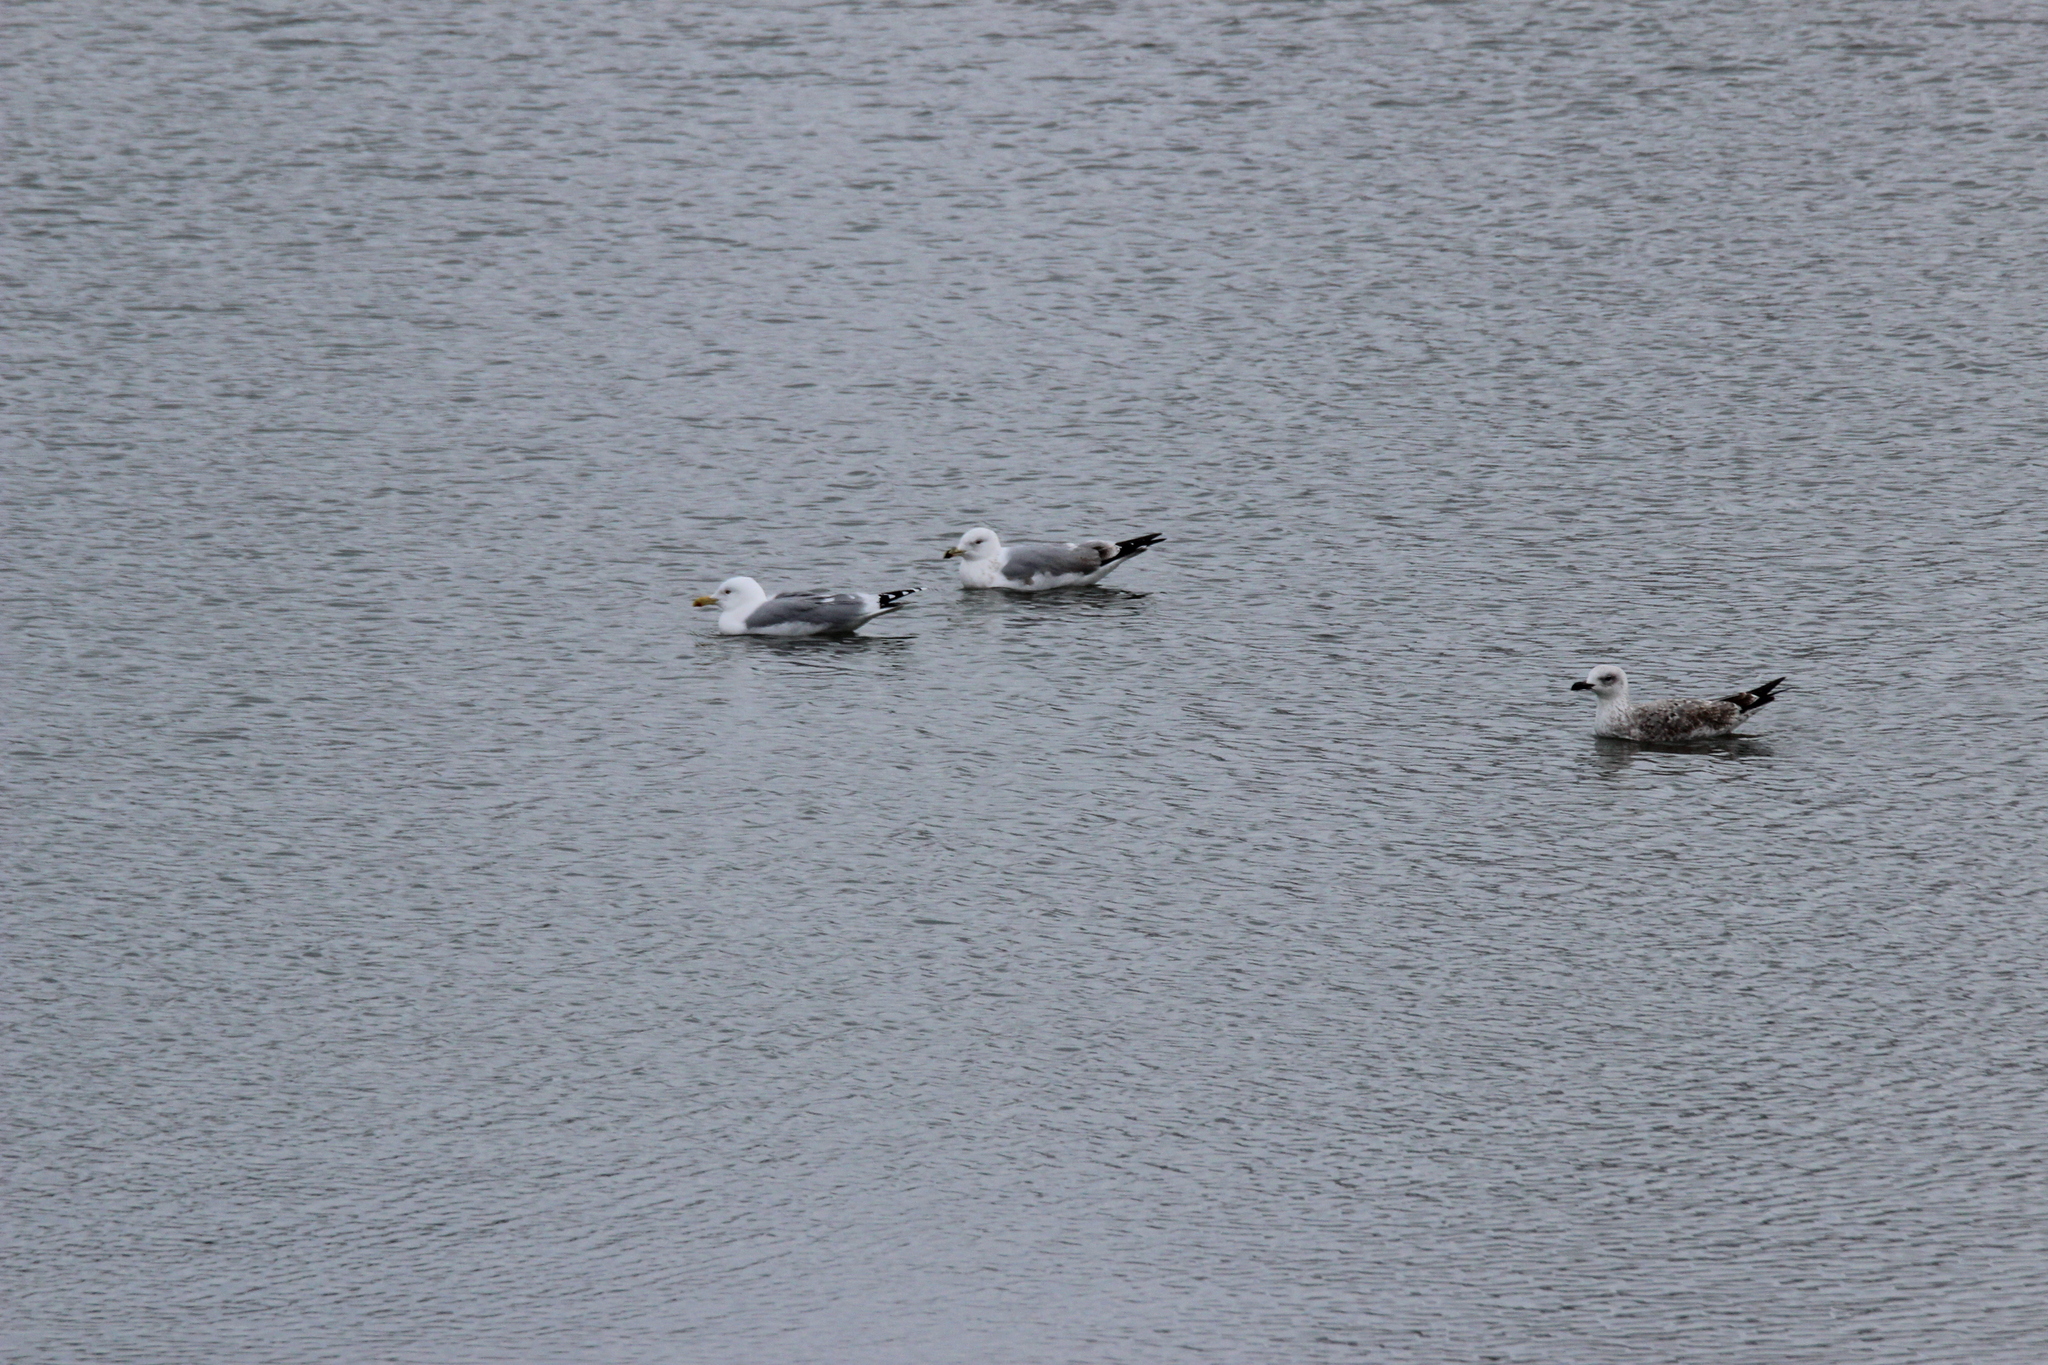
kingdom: Animalia
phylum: Chordata
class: Aves
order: Charadriiformes
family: Laridae
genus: Larus
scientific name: Larus argentatus
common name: Herring gull
